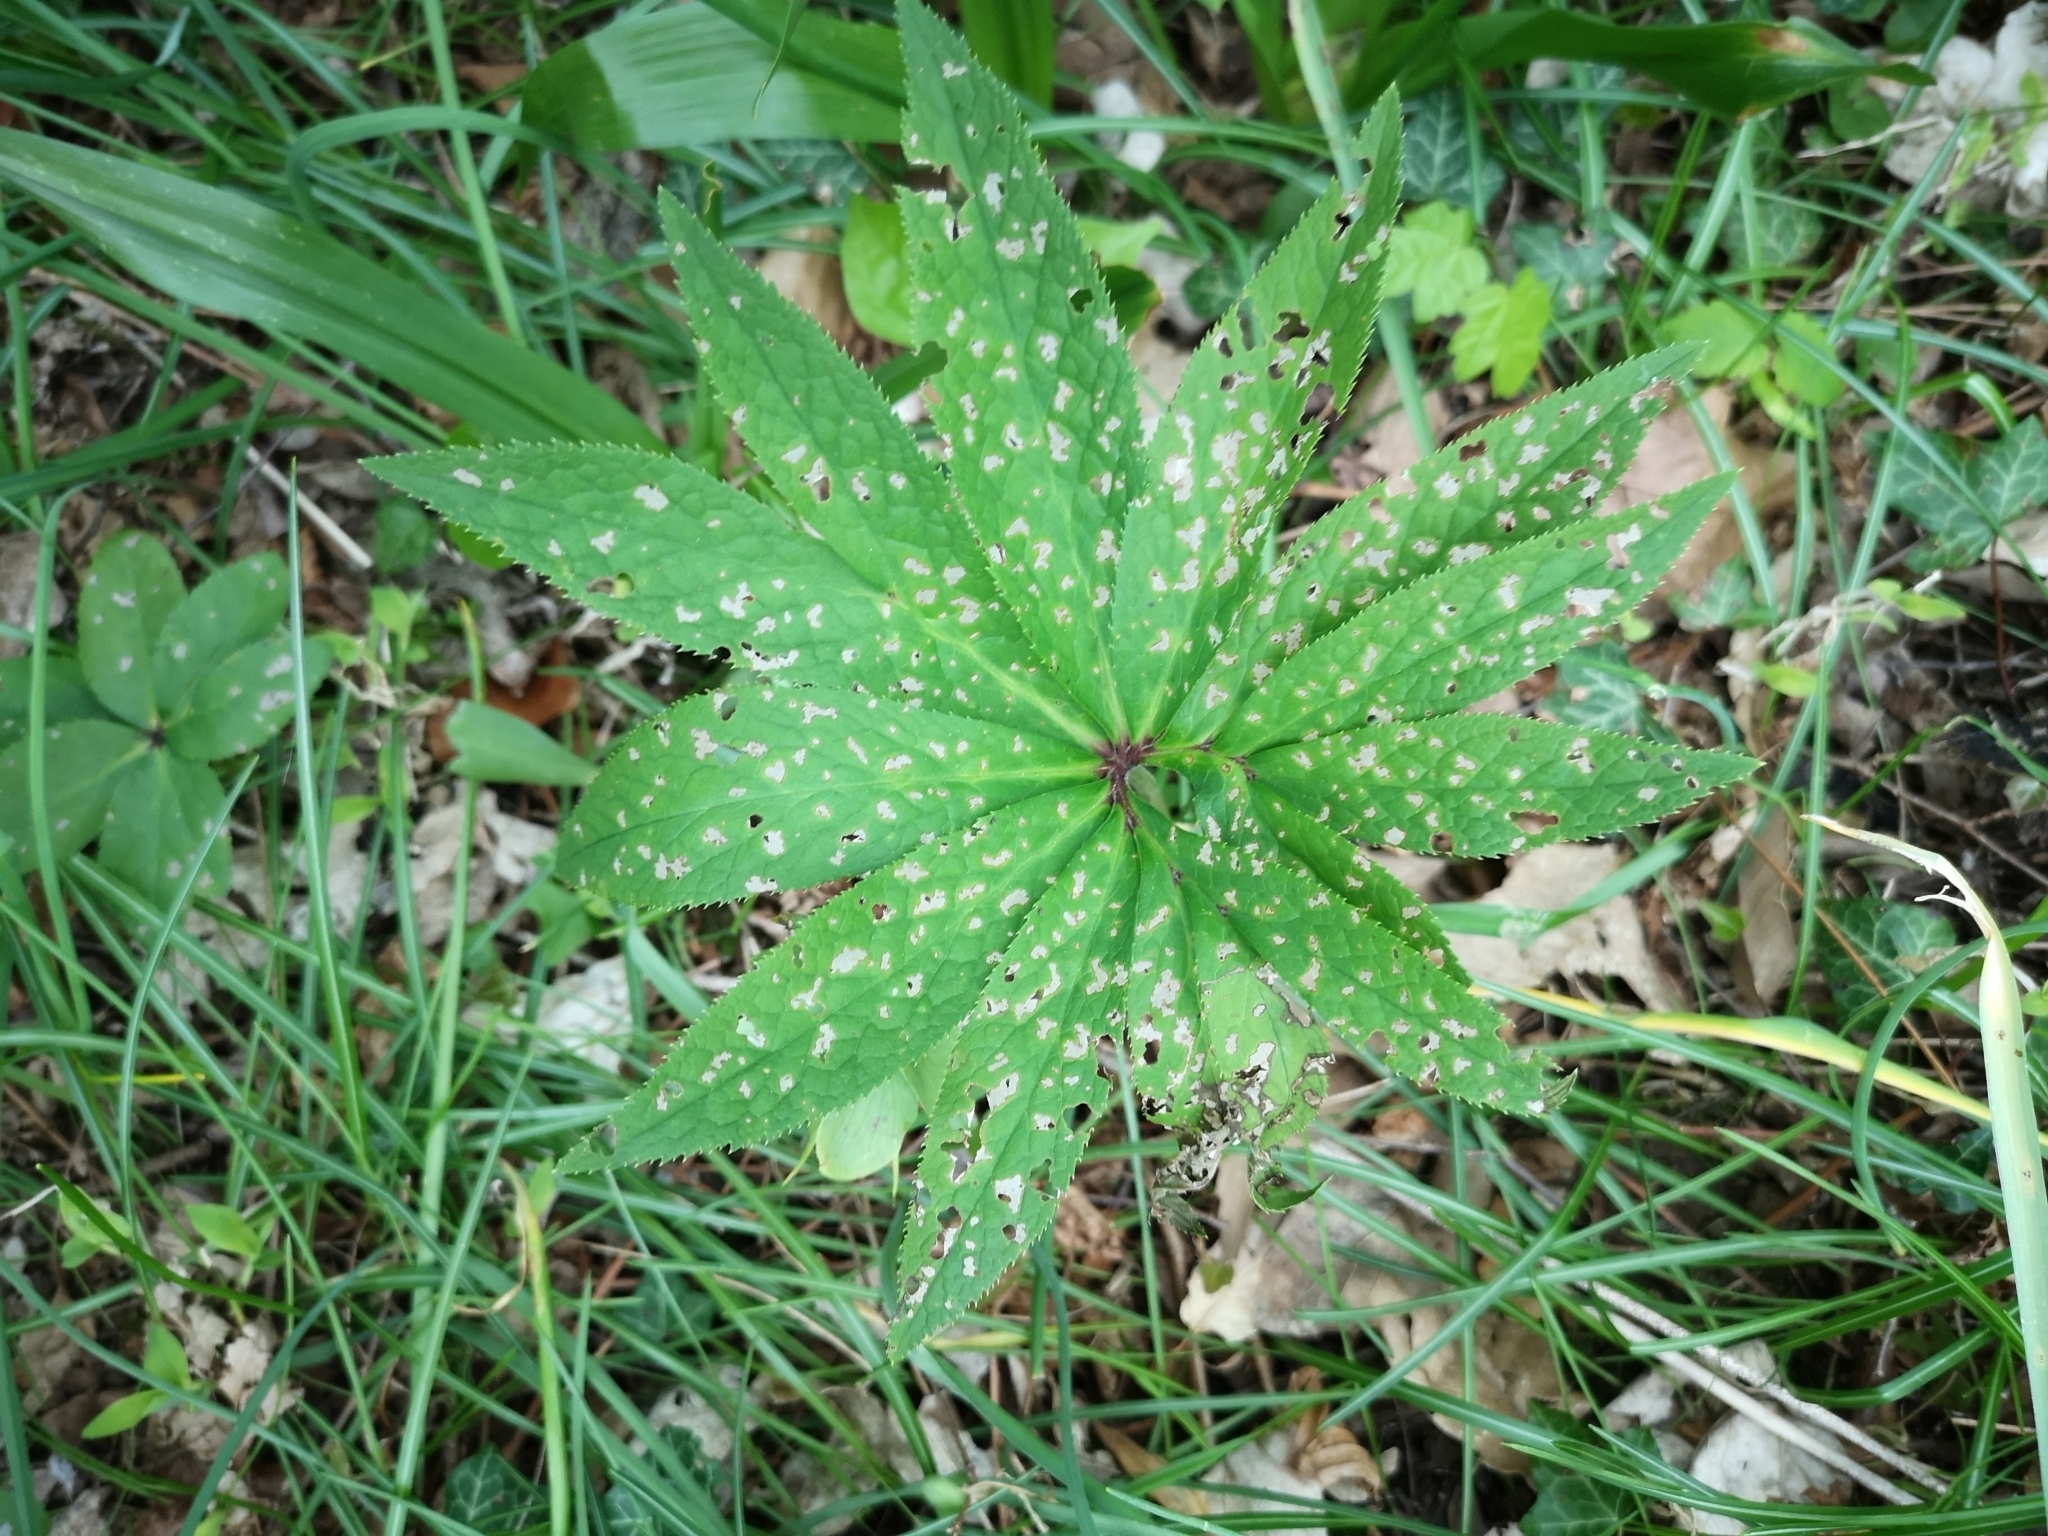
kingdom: Plantae
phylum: Tracheophyta
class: Magnoliopsida
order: Ranunculales
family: Ranunculaceae
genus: Helleborus
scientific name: Helleborus viridis
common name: Green hellebore
